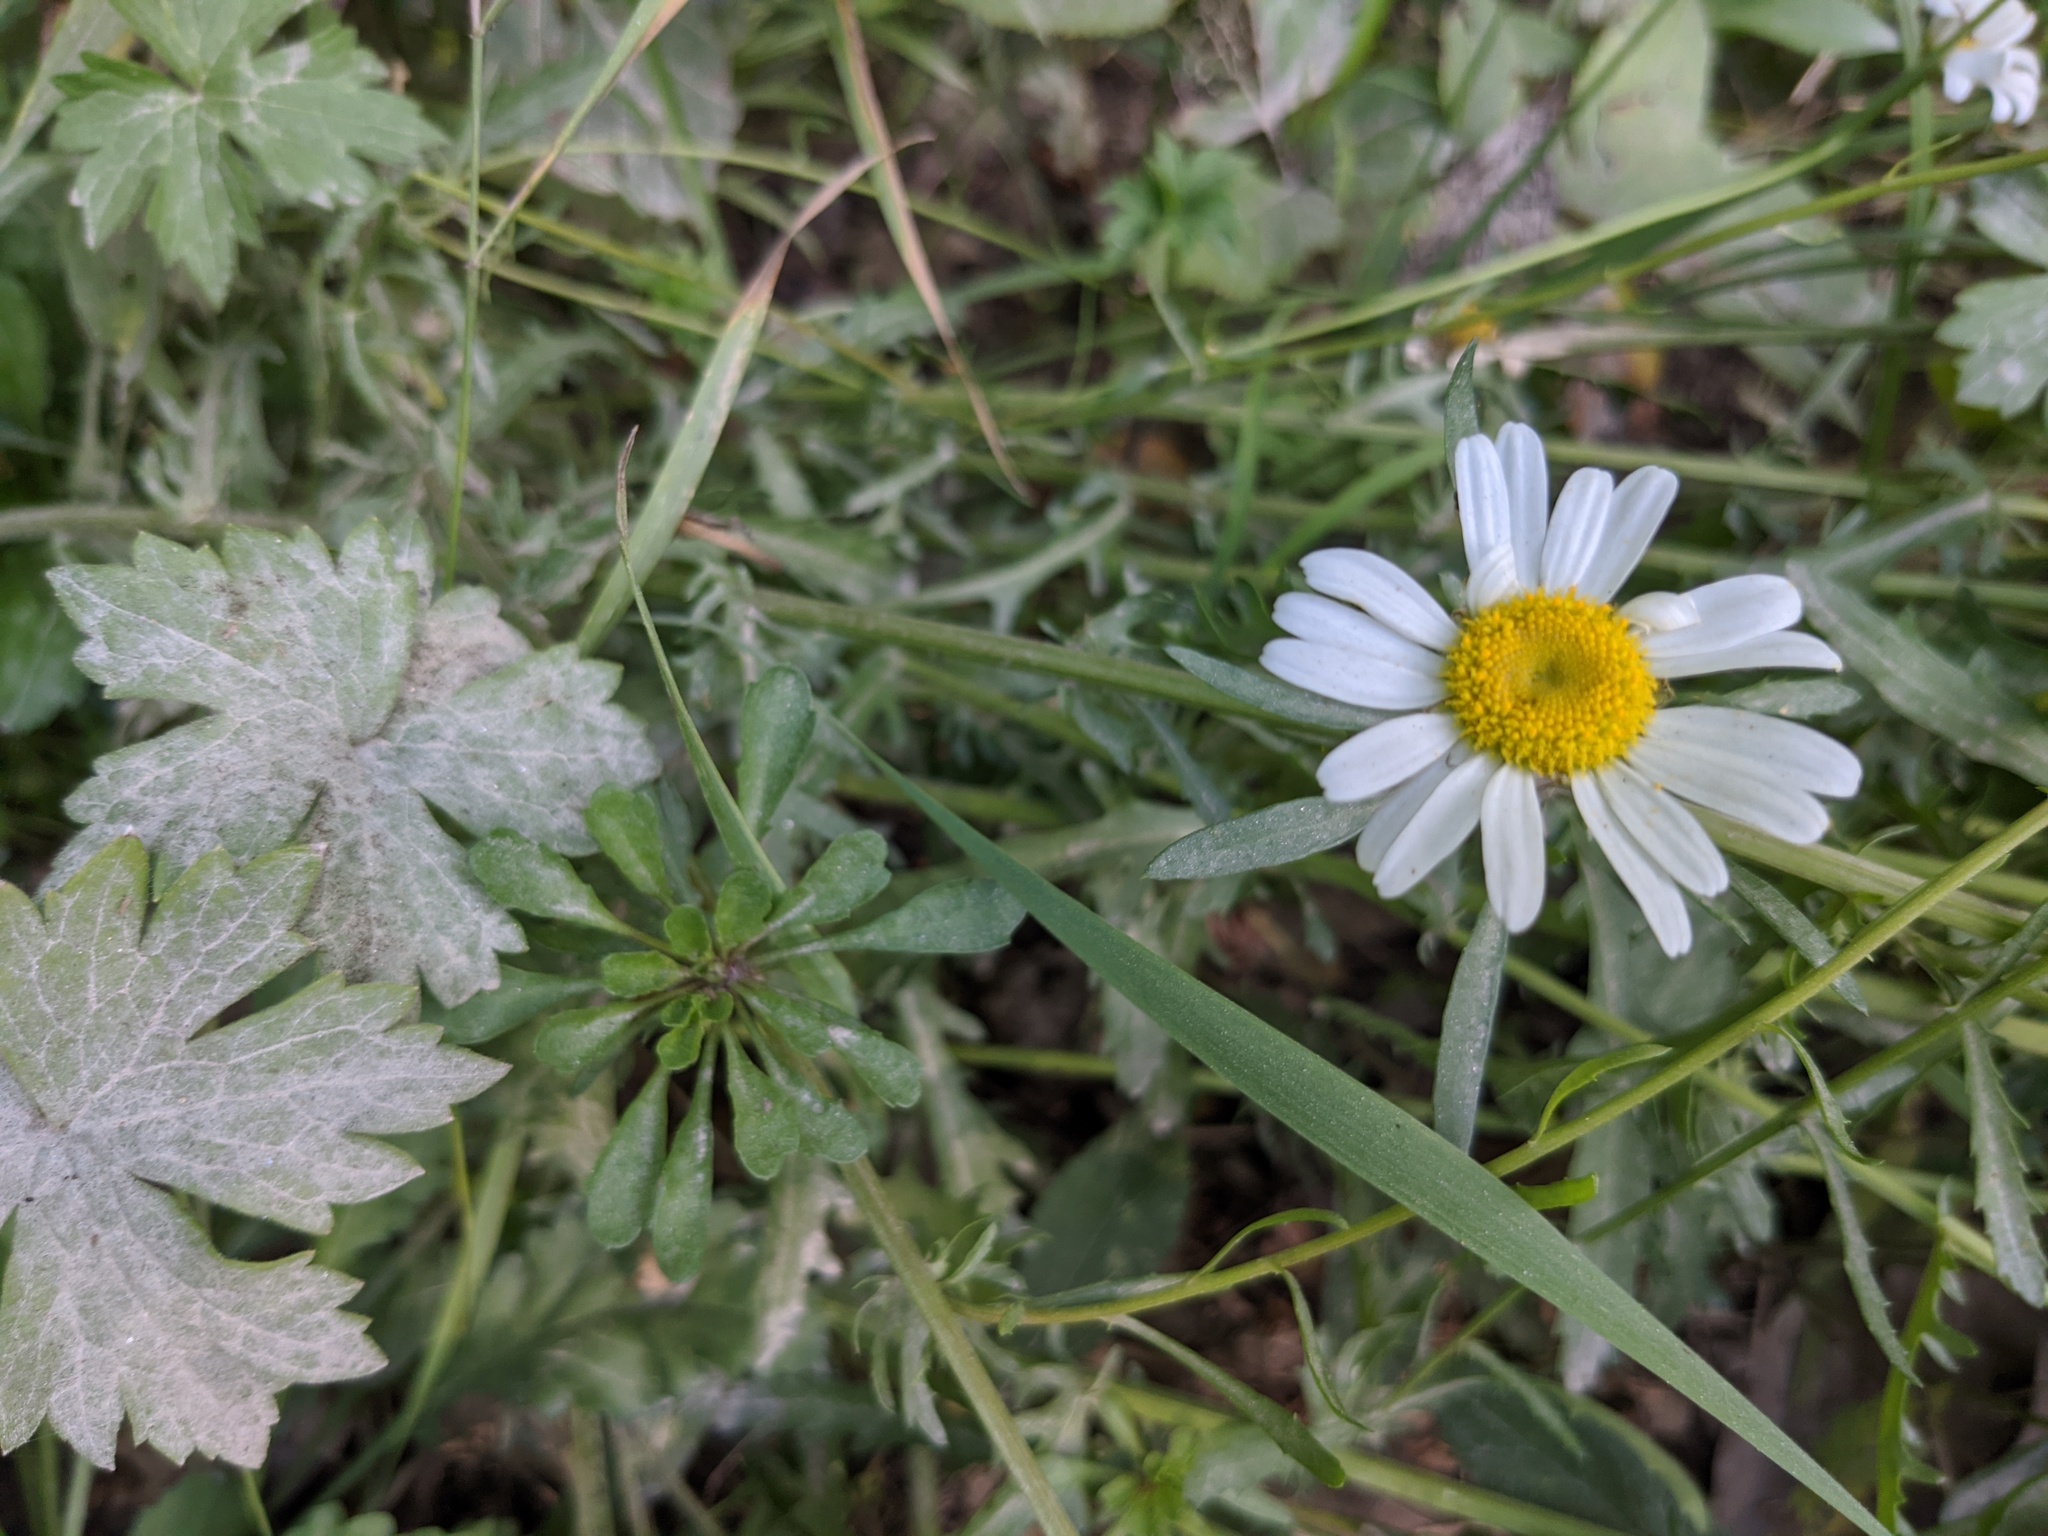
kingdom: Plantae
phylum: Tracheophyta
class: Magnoliopsida
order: Asterales
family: Asteraceae
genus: Leucanthemum
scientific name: Leucanthemum vulgare
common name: Oxeye daisy
